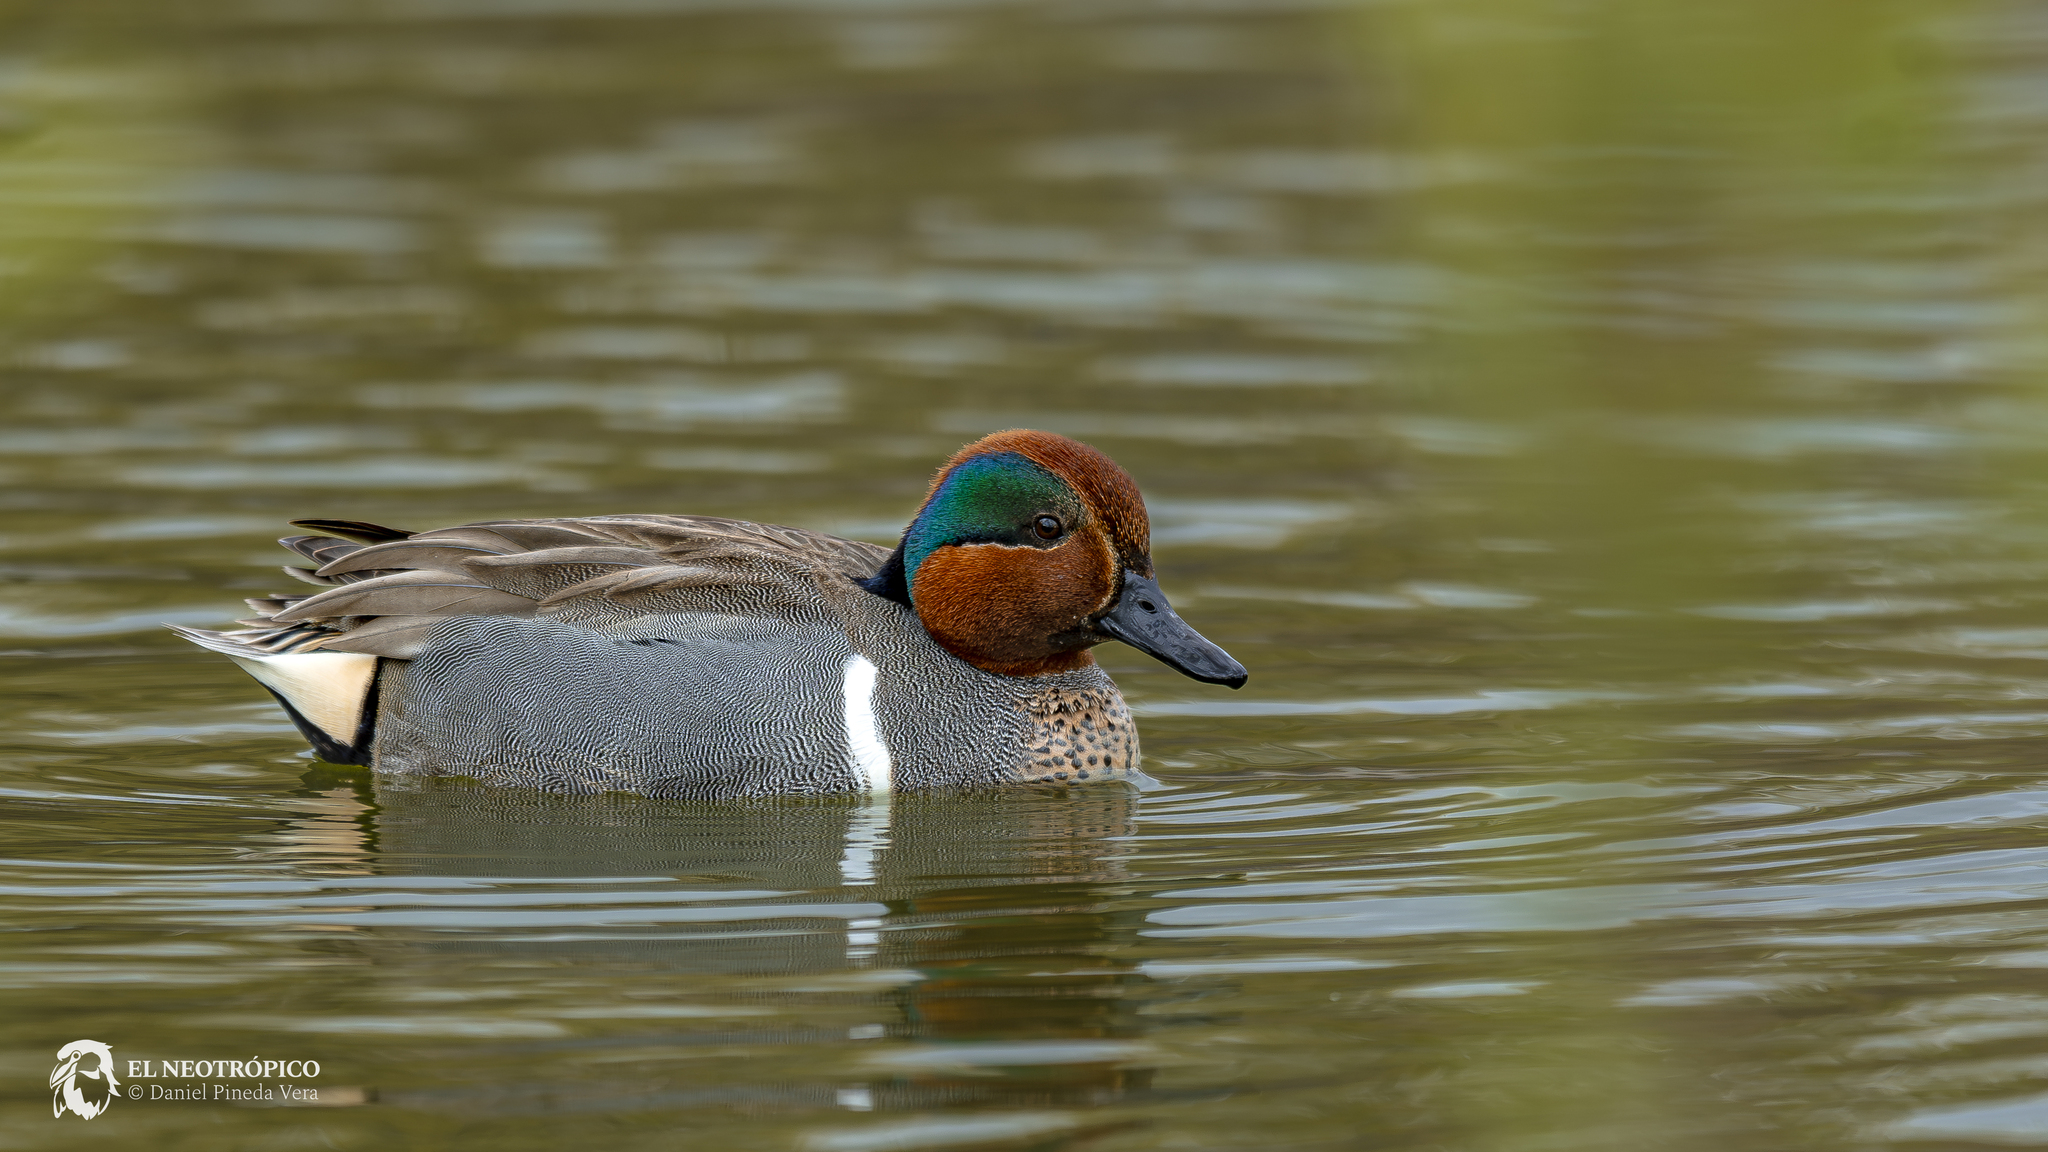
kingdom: Animalia
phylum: Chordata
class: Aves
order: Anseriformes
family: Anatidae
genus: Anas
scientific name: Anas crecca
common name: Eurasian teal
